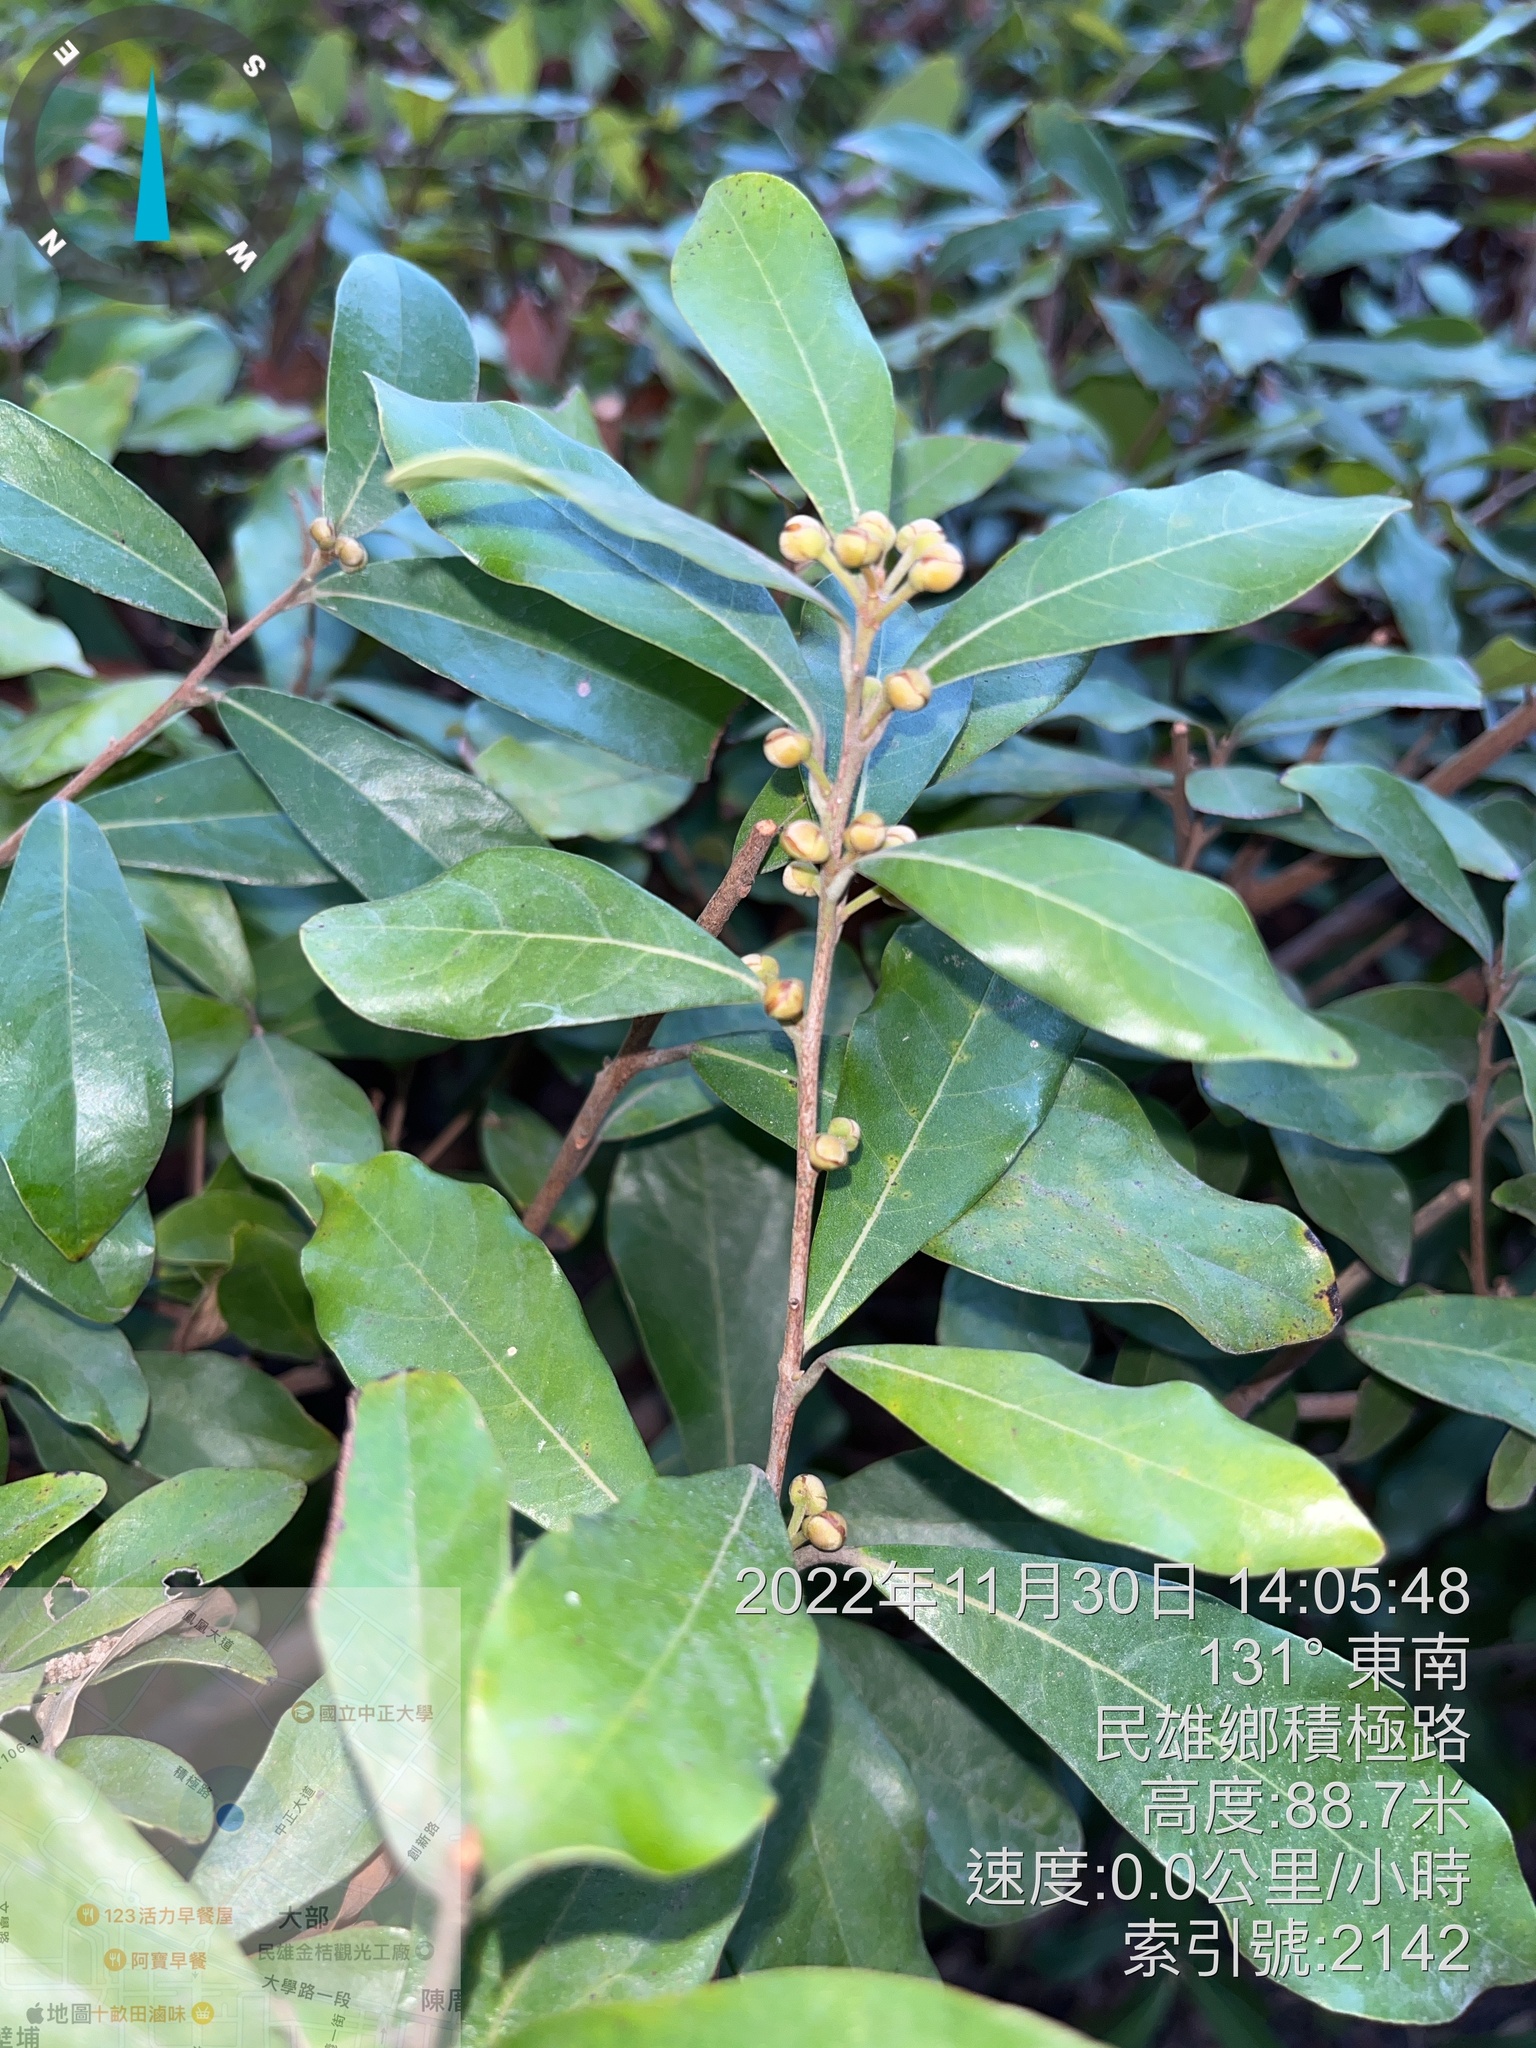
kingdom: Plantae
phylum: Tracheophyta
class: Magnoliopsida
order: Laurales
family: Lauraceae
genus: Litsea
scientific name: Litsea hypophaea
